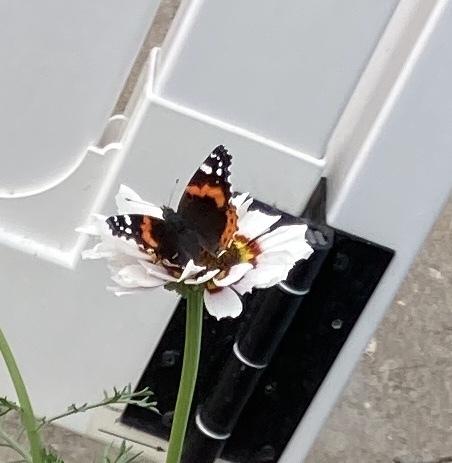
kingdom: Animalia
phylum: Arthropoda
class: Insecta
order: Lepidoptera
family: Nymphalidae
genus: Vanessa
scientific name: Vanessa atalanta
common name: Red admiral
